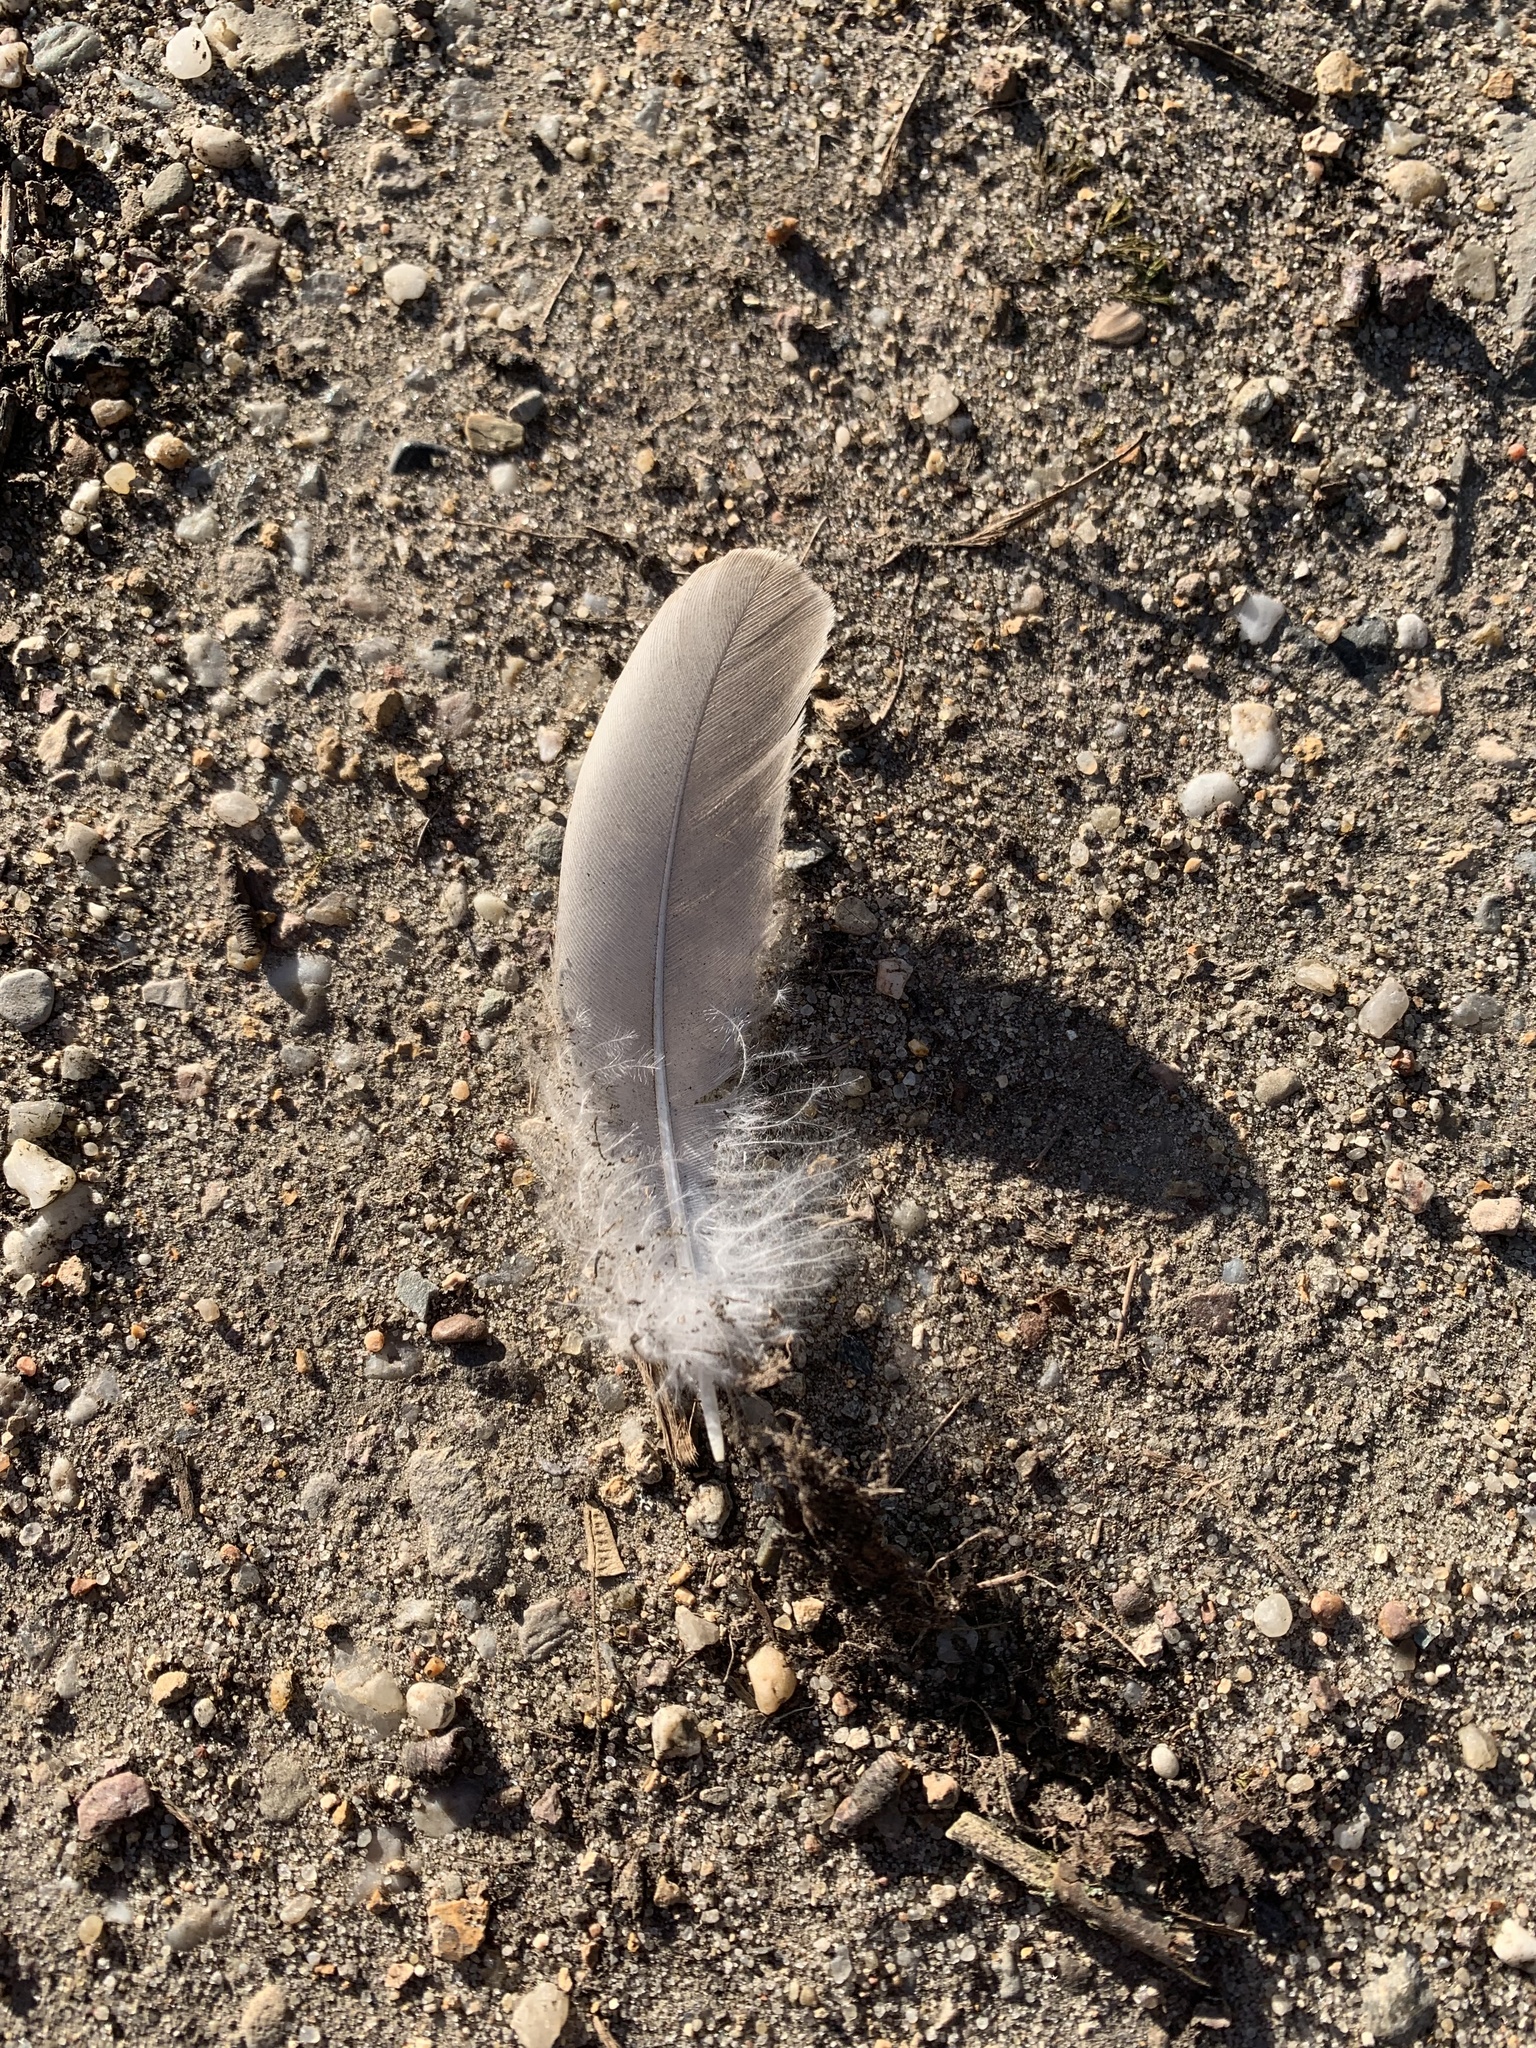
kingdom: Animalia
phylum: Chordata
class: Aves
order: Columbiformes
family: Columbidae
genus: Columba
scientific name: Columba palumbus
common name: Common wood pigeon
